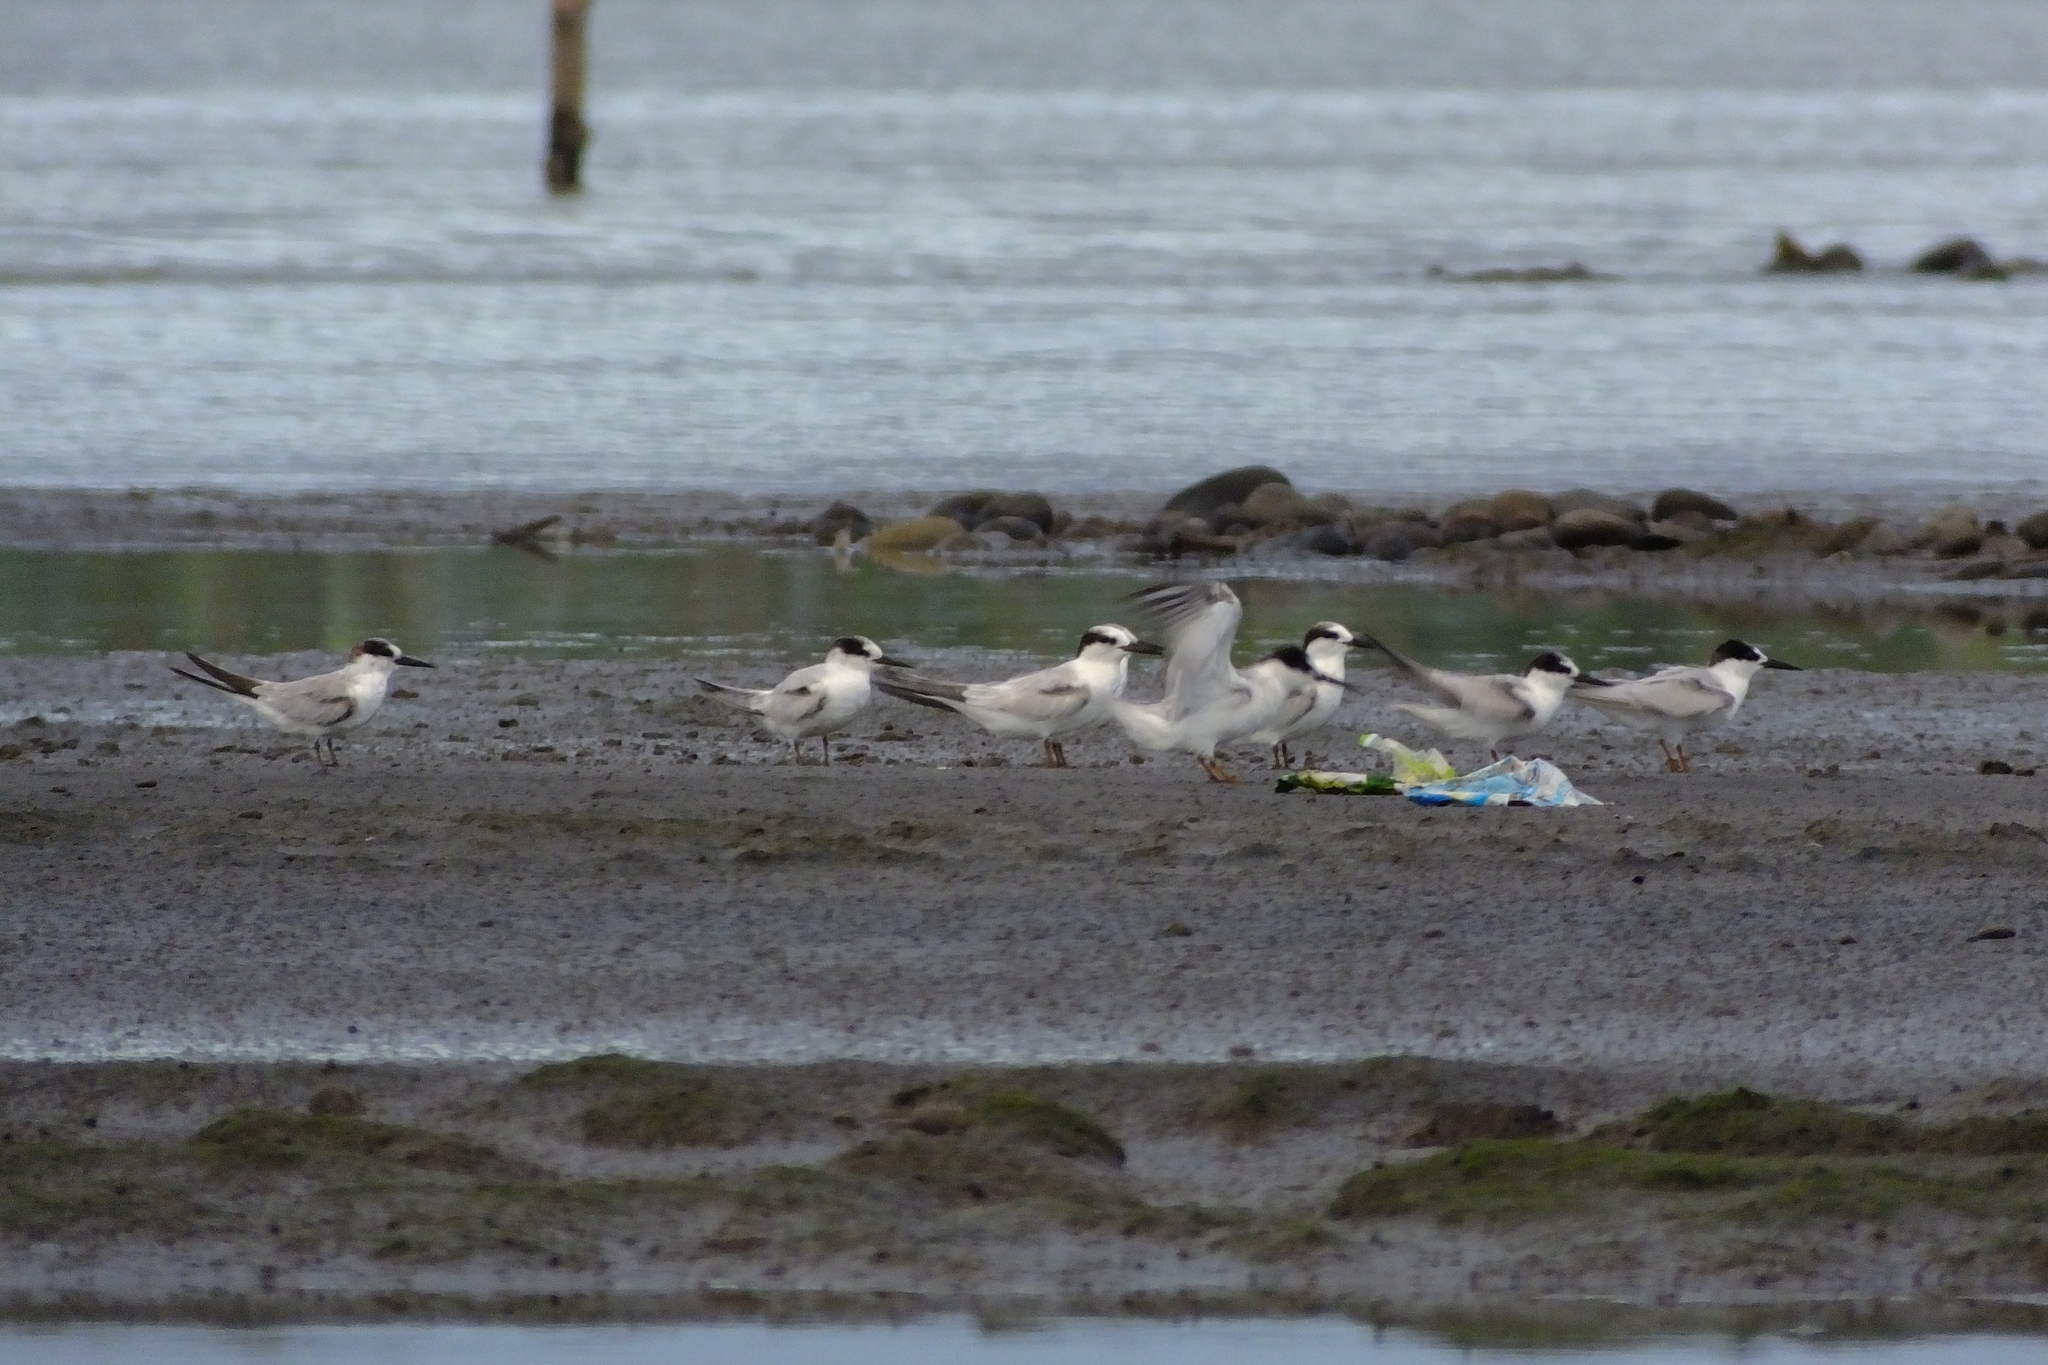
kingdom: Animalia
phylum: Chordata
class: Aves
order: Charadriiformes
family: Laridae
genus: Sternula
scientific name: Sternula albifrons
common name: Little tern
